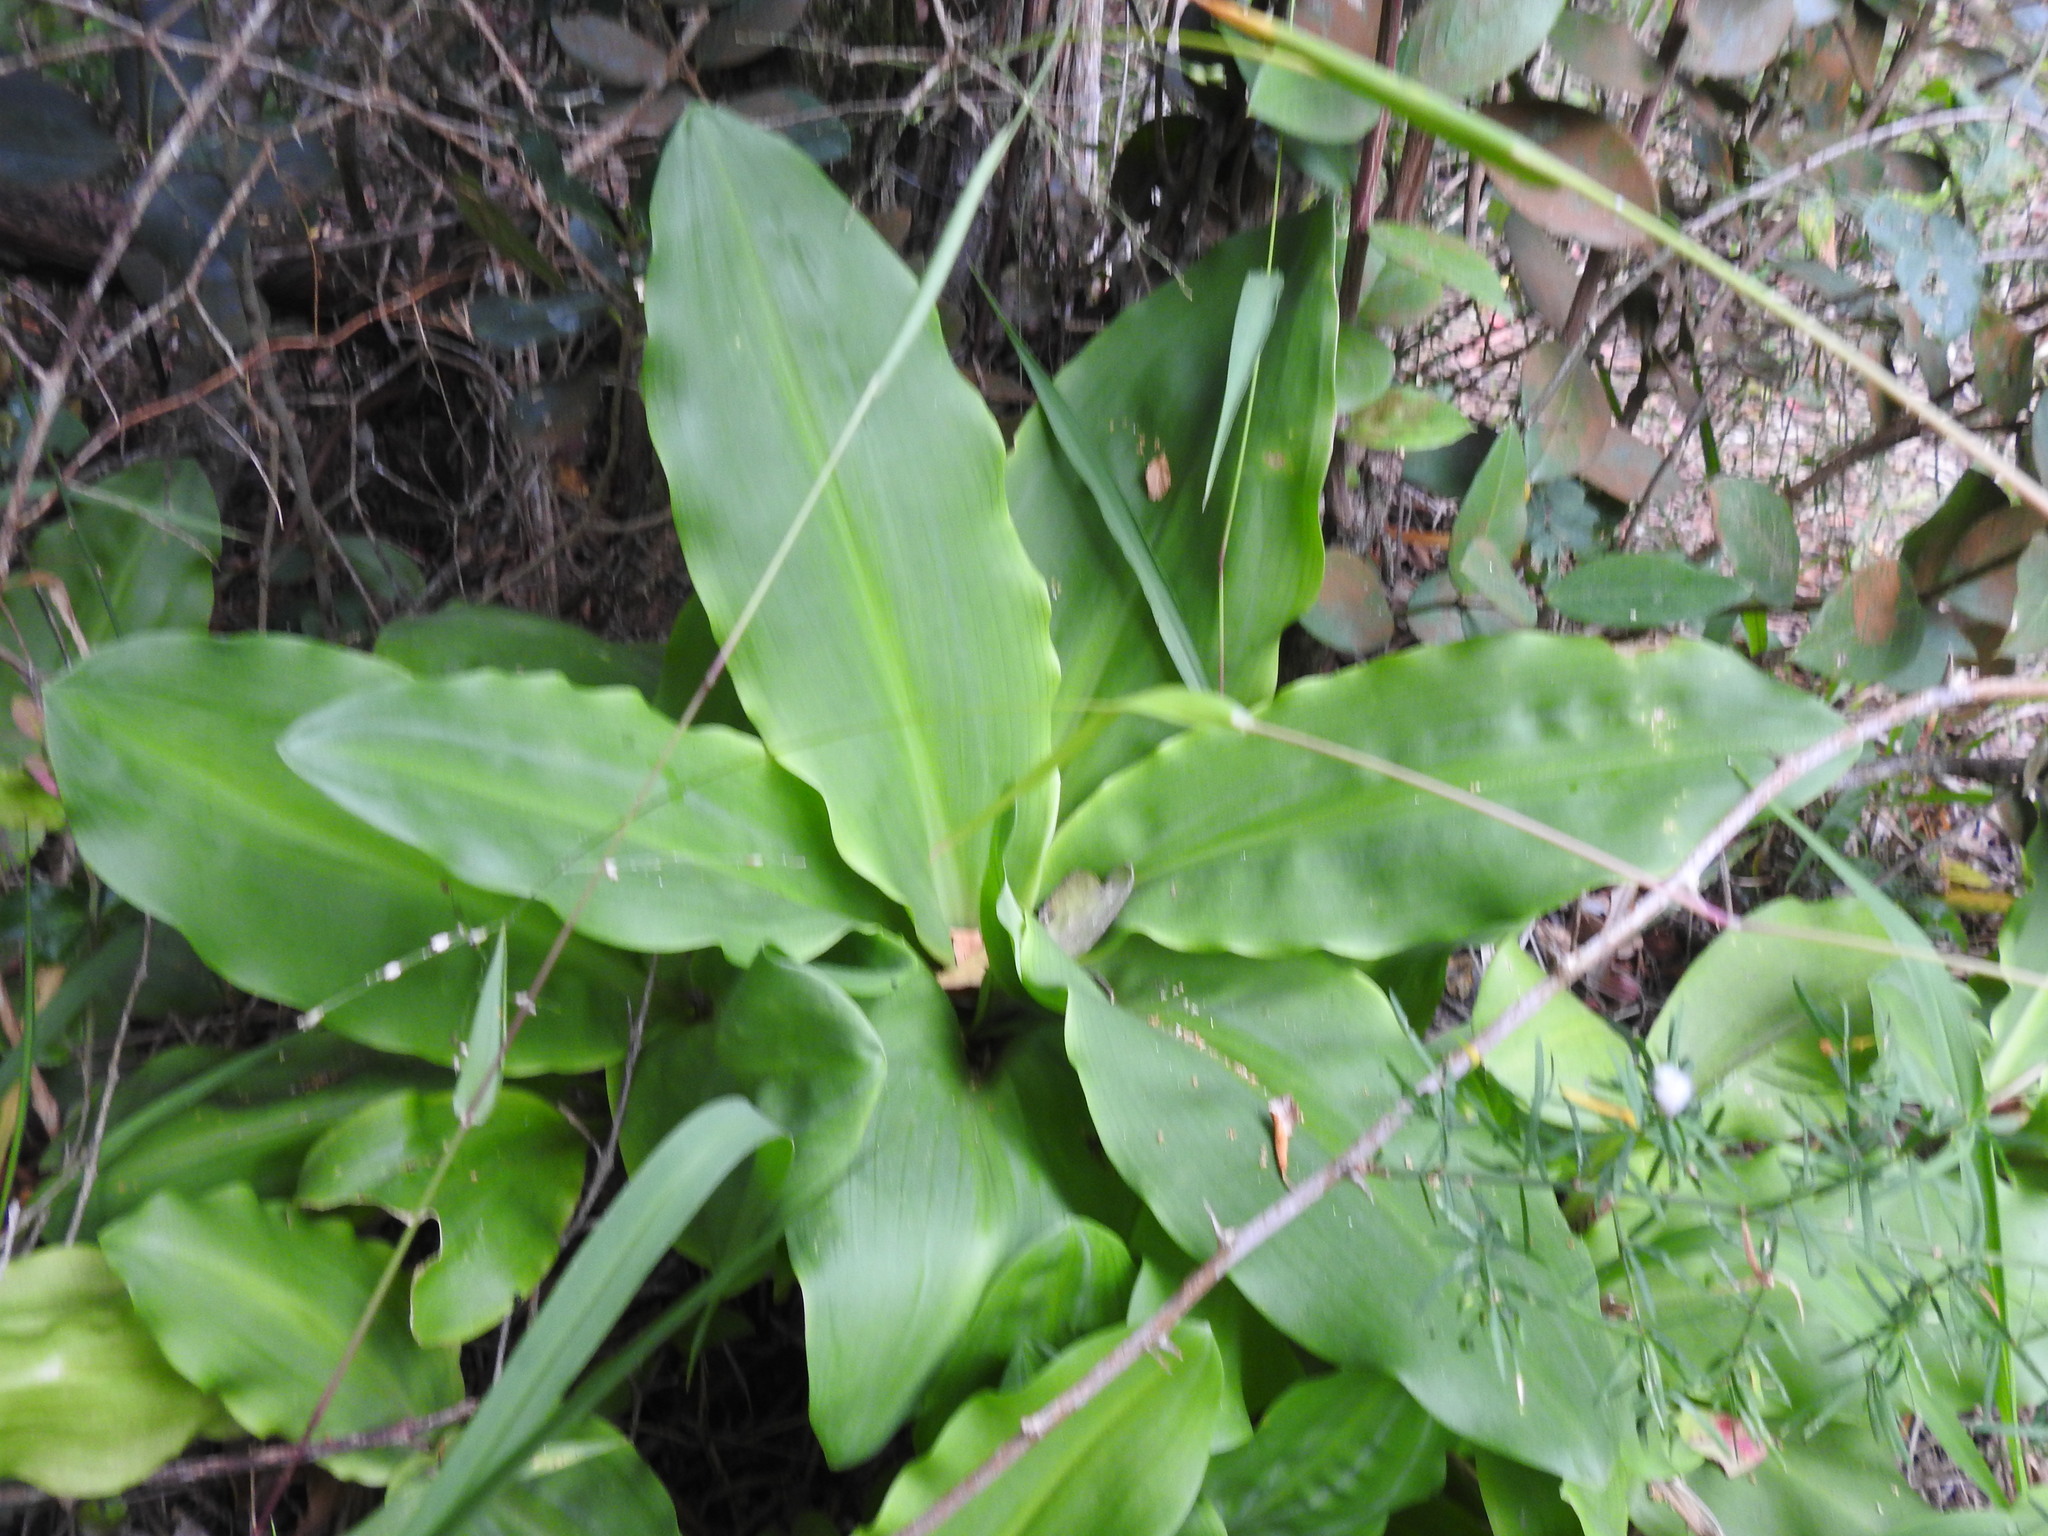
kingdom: Plantae
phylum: Tracheophyta
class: Liliopsida
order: Asparagales
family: Amaryllidaceae
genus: Scadoxus
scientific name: Scadoxus puniceus
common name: Royal-paintbrush
